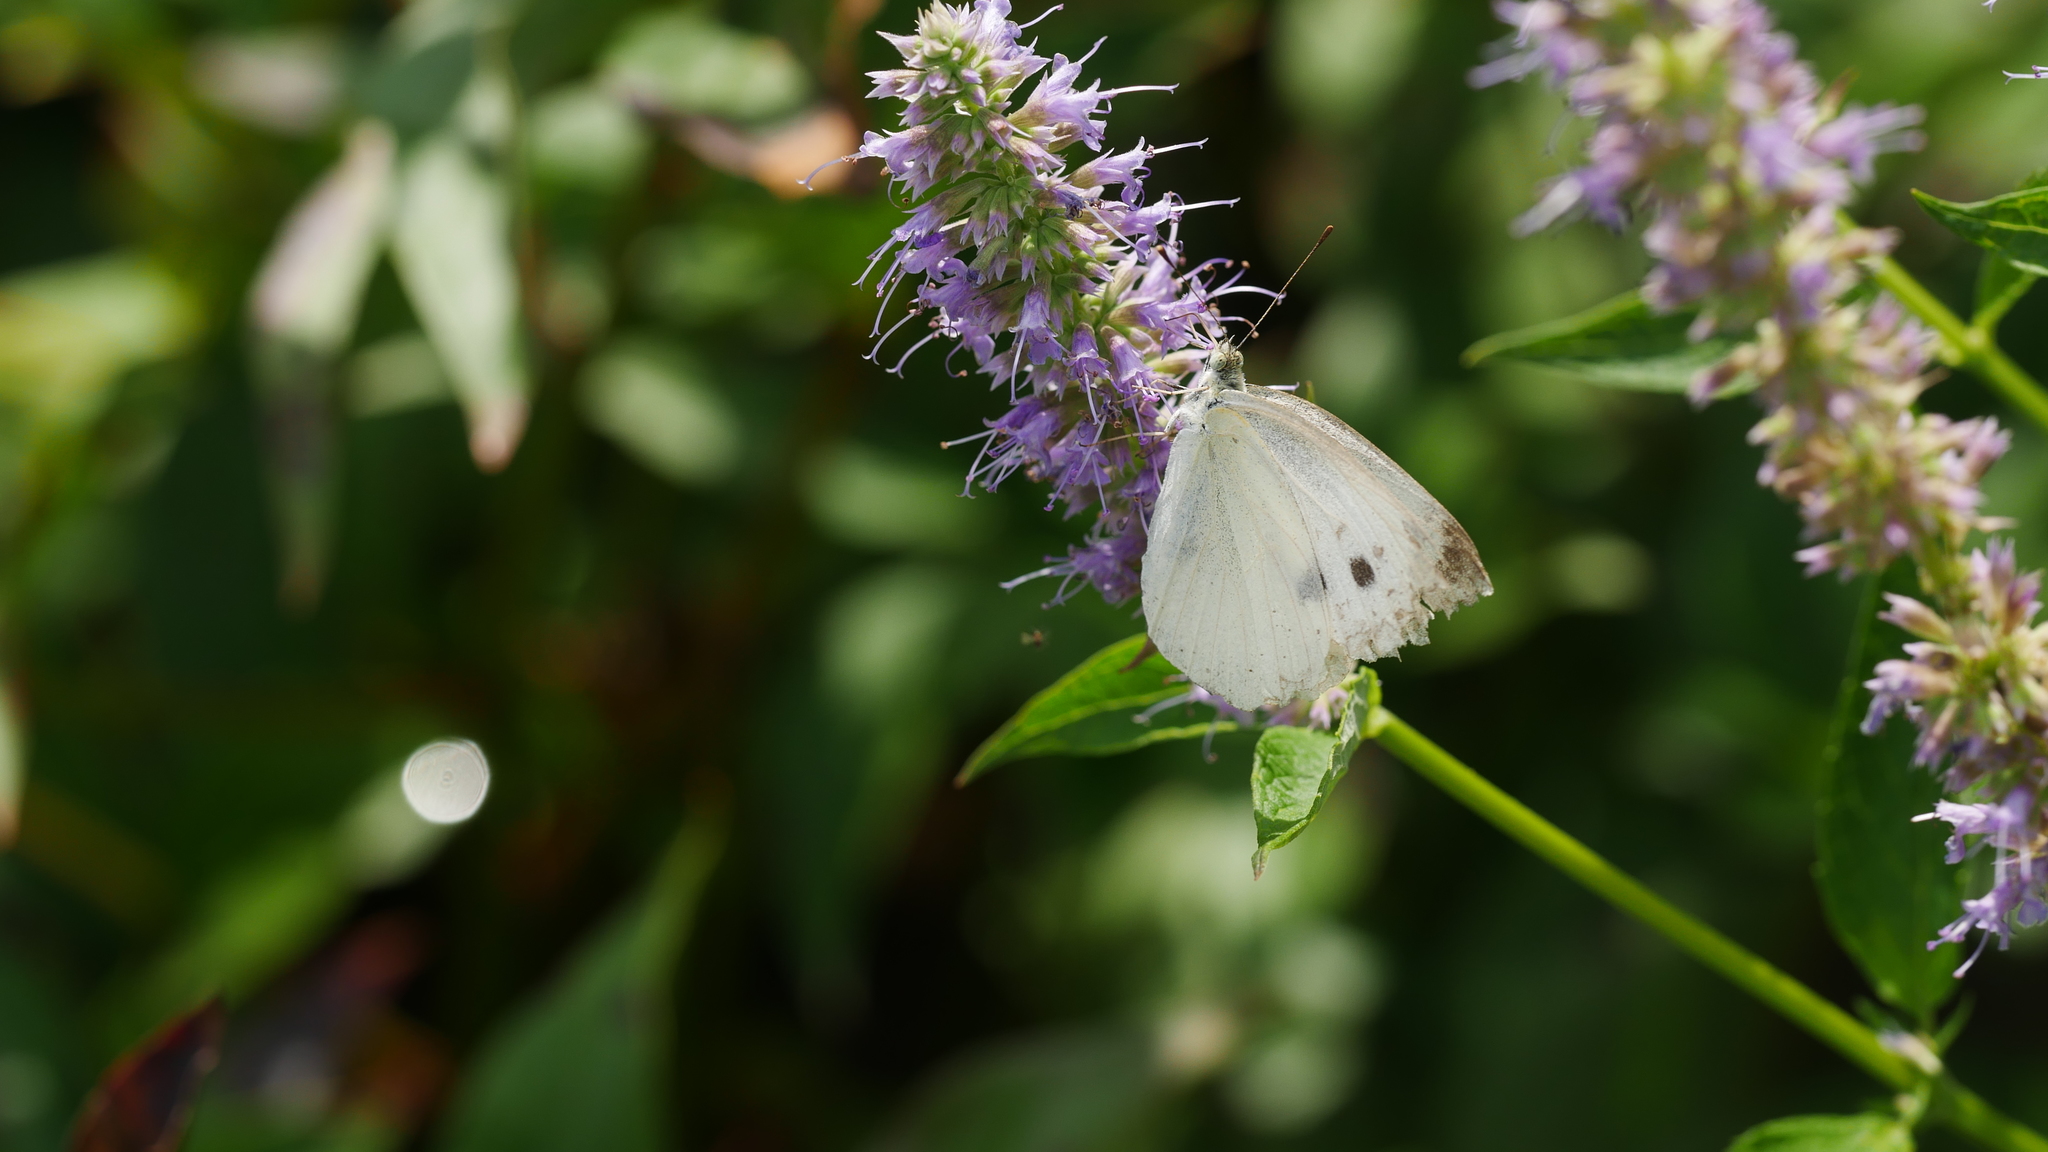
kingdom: Animalia
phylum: Arthropoda
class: Insecta
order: Lepidoptera
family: Pieridae
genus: Pieris
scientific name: Pieris rapae
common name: Small white
